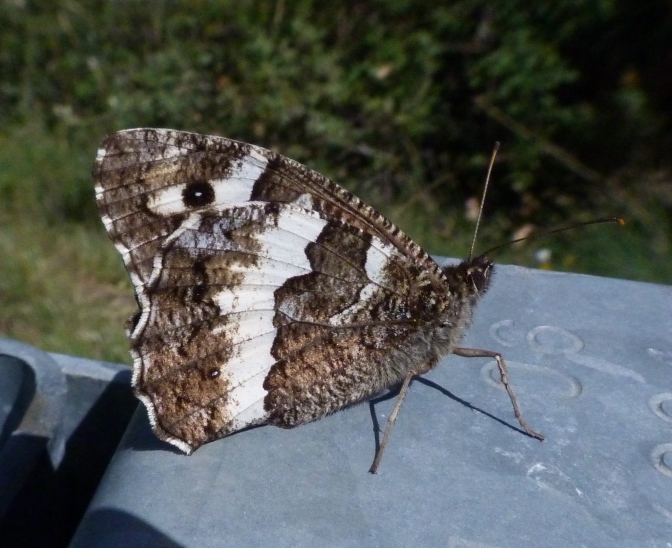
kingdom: Animalia
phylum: Arthropoda
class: Insecta
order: Lepidoptera
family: Lycaenidae
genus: Loweia
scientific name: Loweia tityrus
